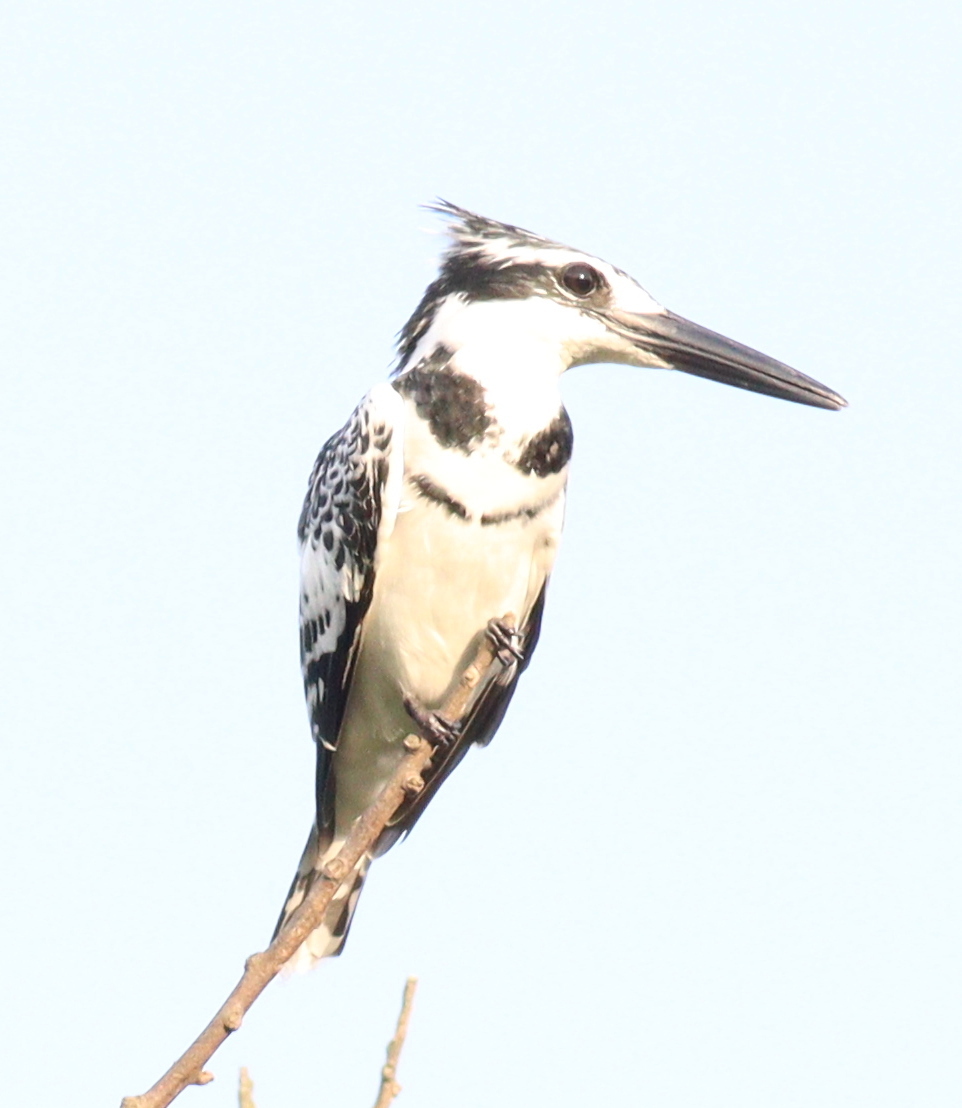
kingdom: Animalia
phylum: Chordata
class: Aves
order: Coraciiformes
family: Alcedinidae
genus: Ceryle
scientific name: Ceryle rudis
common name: Pied kingfisher
